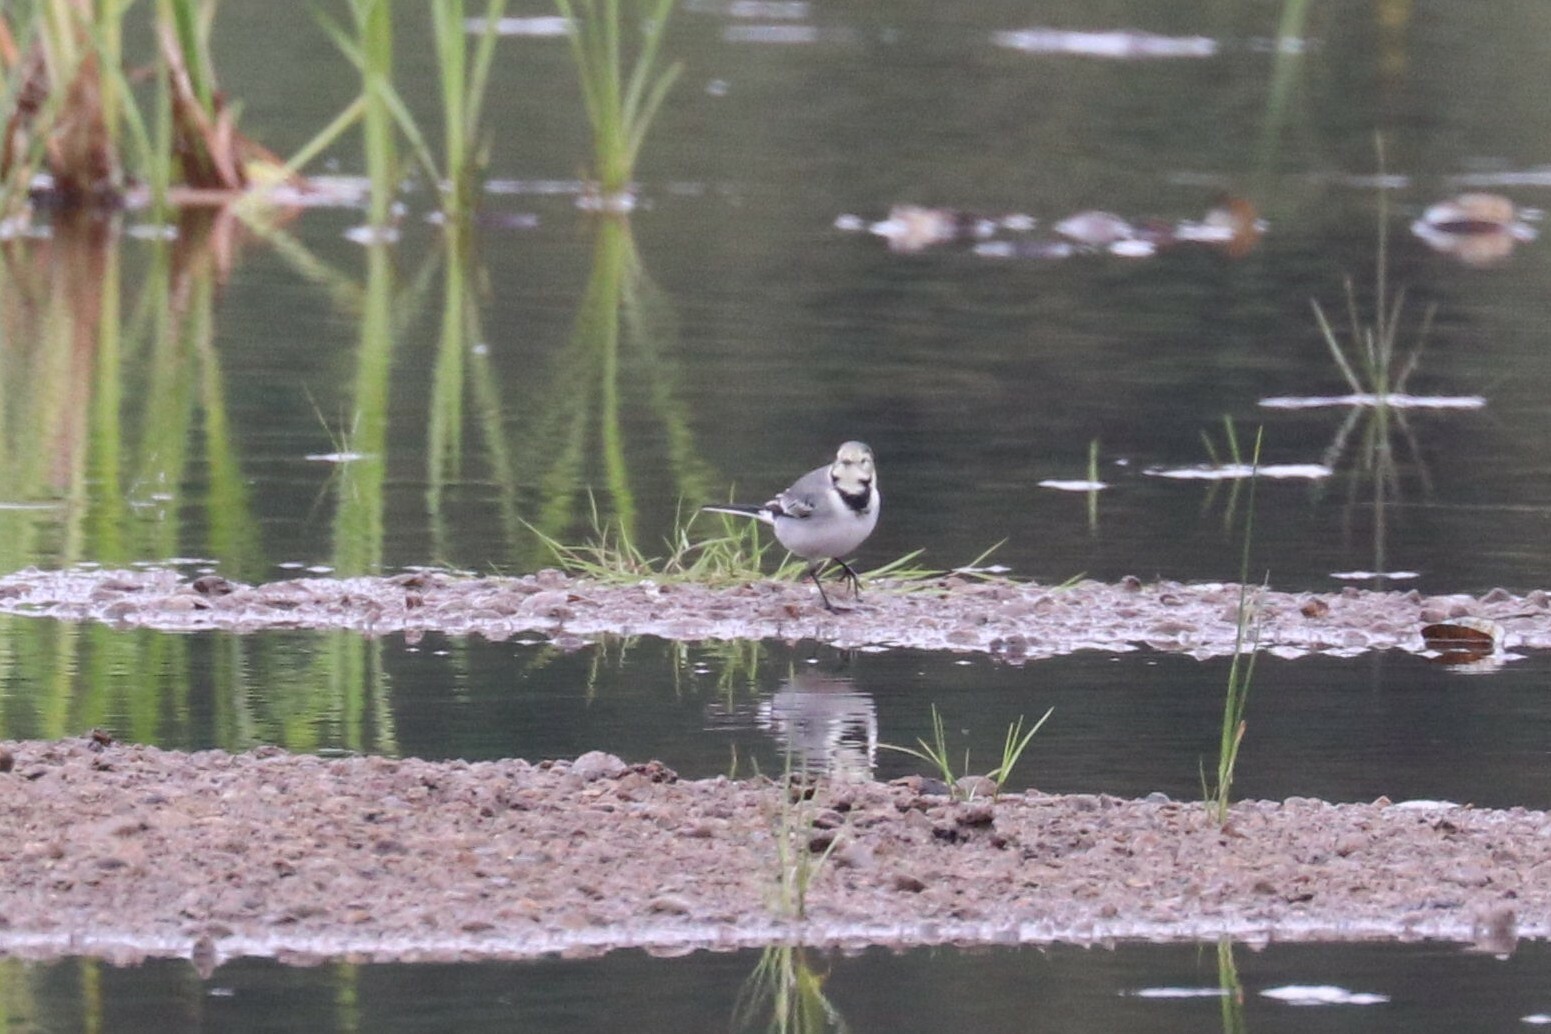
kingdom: Animalia
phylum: Chordata
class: Aves
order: Passeriformes
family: Motacillidae
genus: Motacilla
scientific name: Motacilla alba
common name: White wagtail
